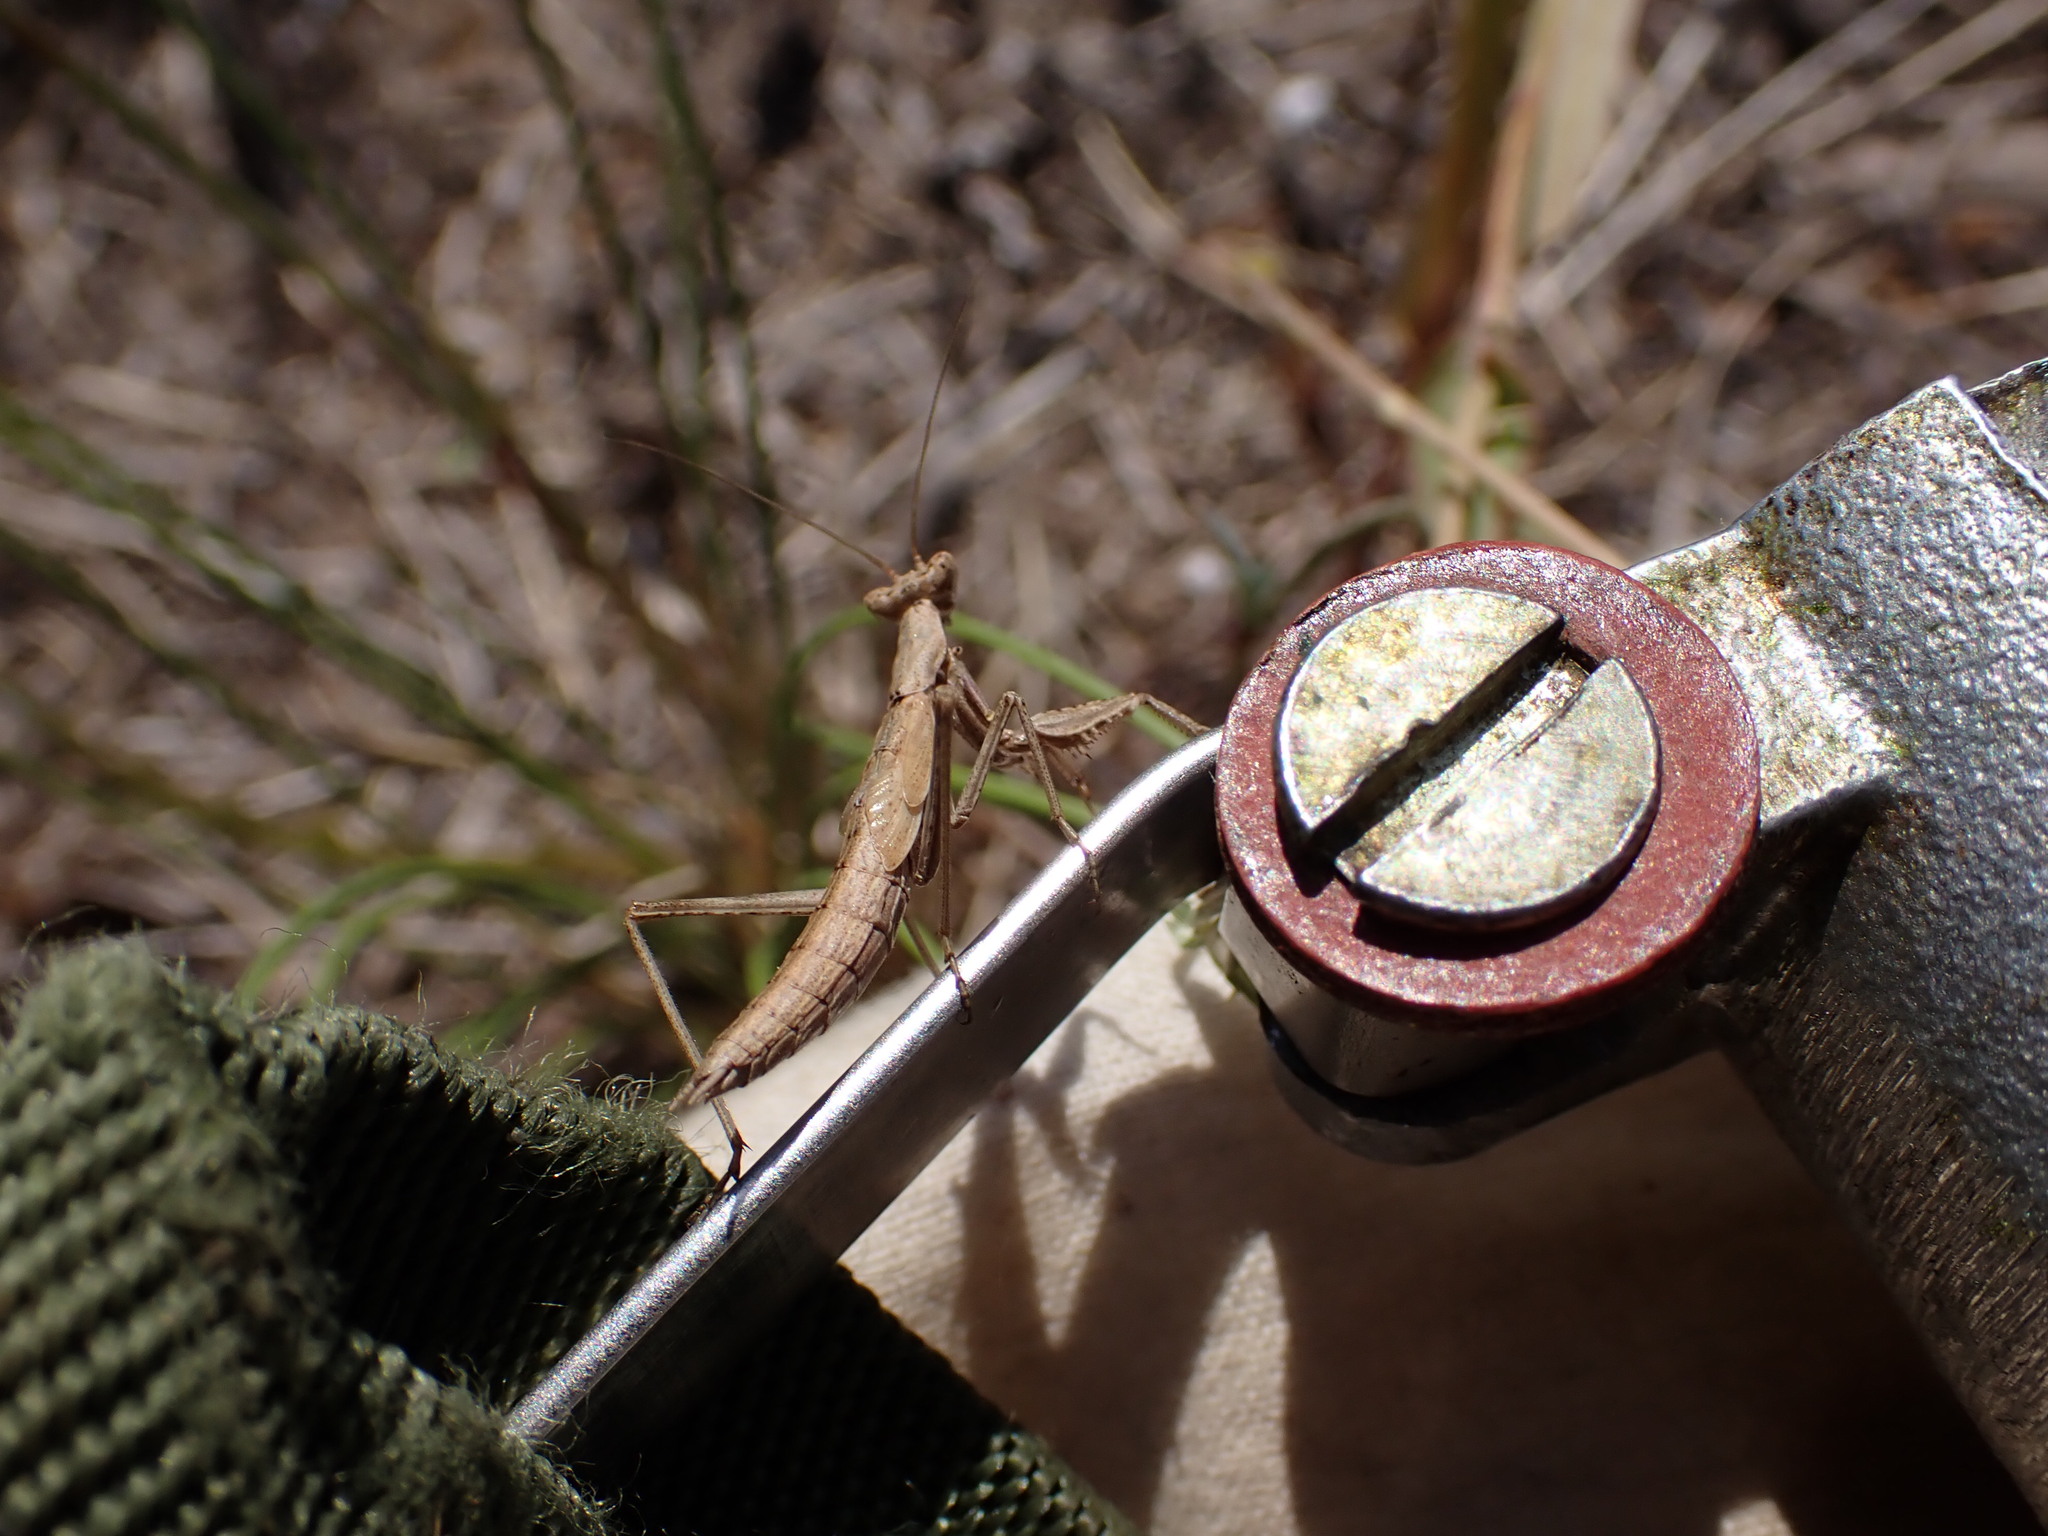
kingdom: Animalia
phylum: Arthropoda
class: Insecta
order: Mantodea
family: Amelidae
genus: Ameles
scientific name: Ameles decolor
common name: Dwarf mantis
